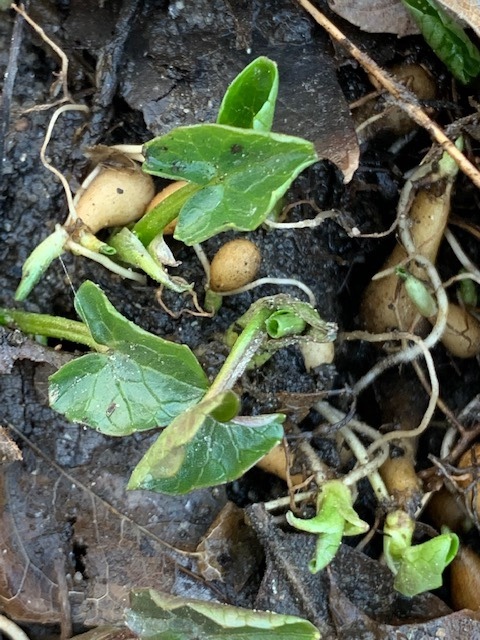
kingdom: Plantae
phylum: Tracheophyta
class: Magnoliopsida
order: Ranunculales
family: Ranunculaceae
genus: Ficaria
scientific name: Ficaria verna
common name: Lesser celandine
